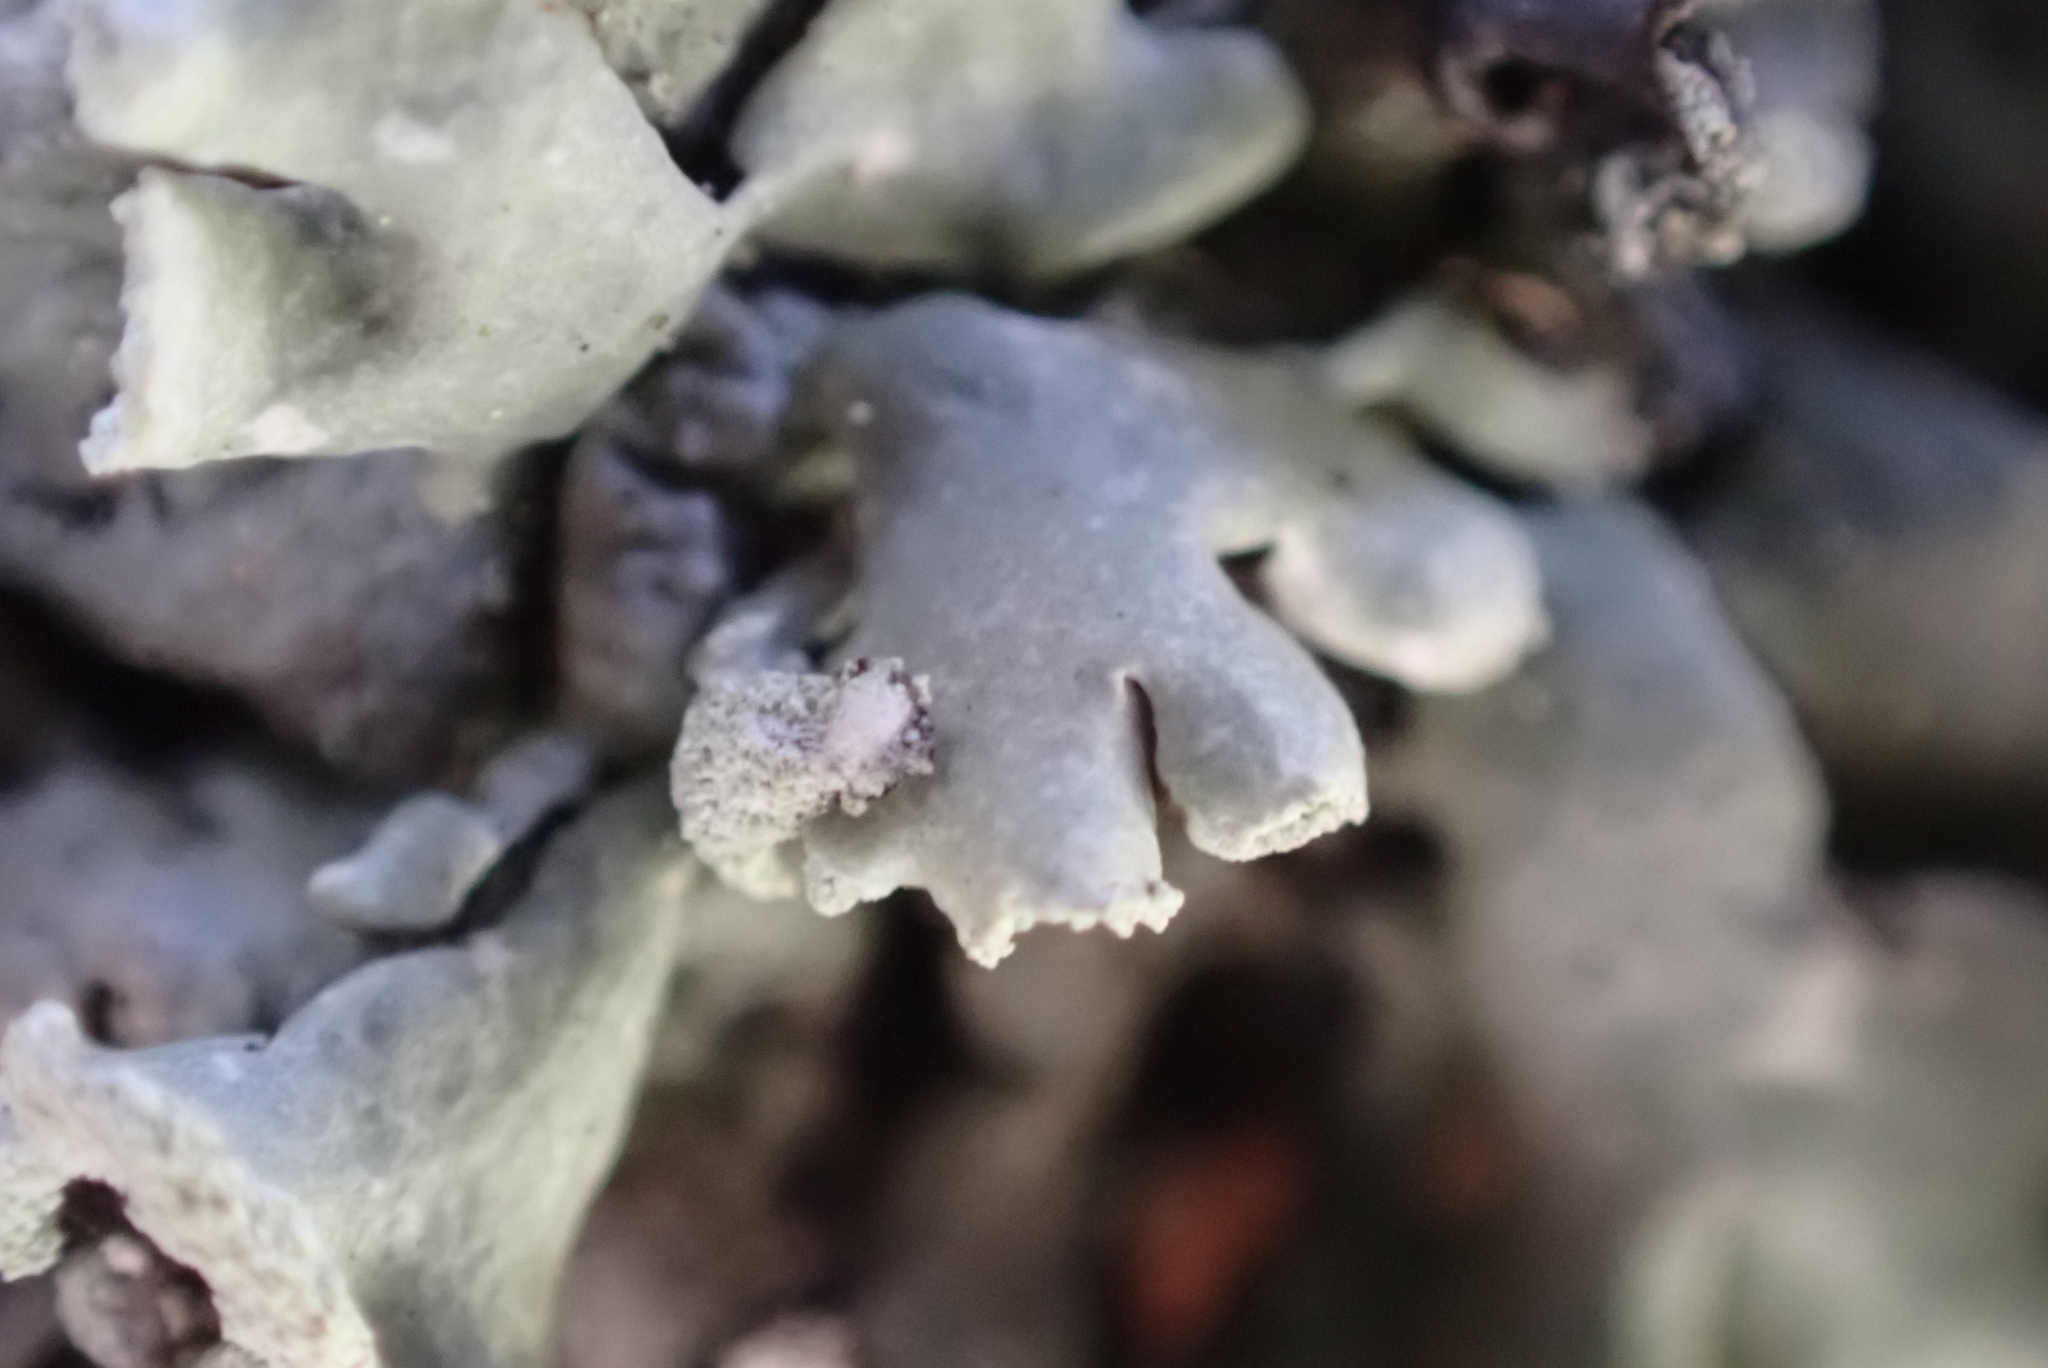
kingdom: Fungi
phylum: Ascomycota
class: Lecanoromycetes
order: Lecanorales
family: Parmeliaceae
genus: Hypogymnia
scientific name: Hypogymnia physodes
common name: Dark crottle
